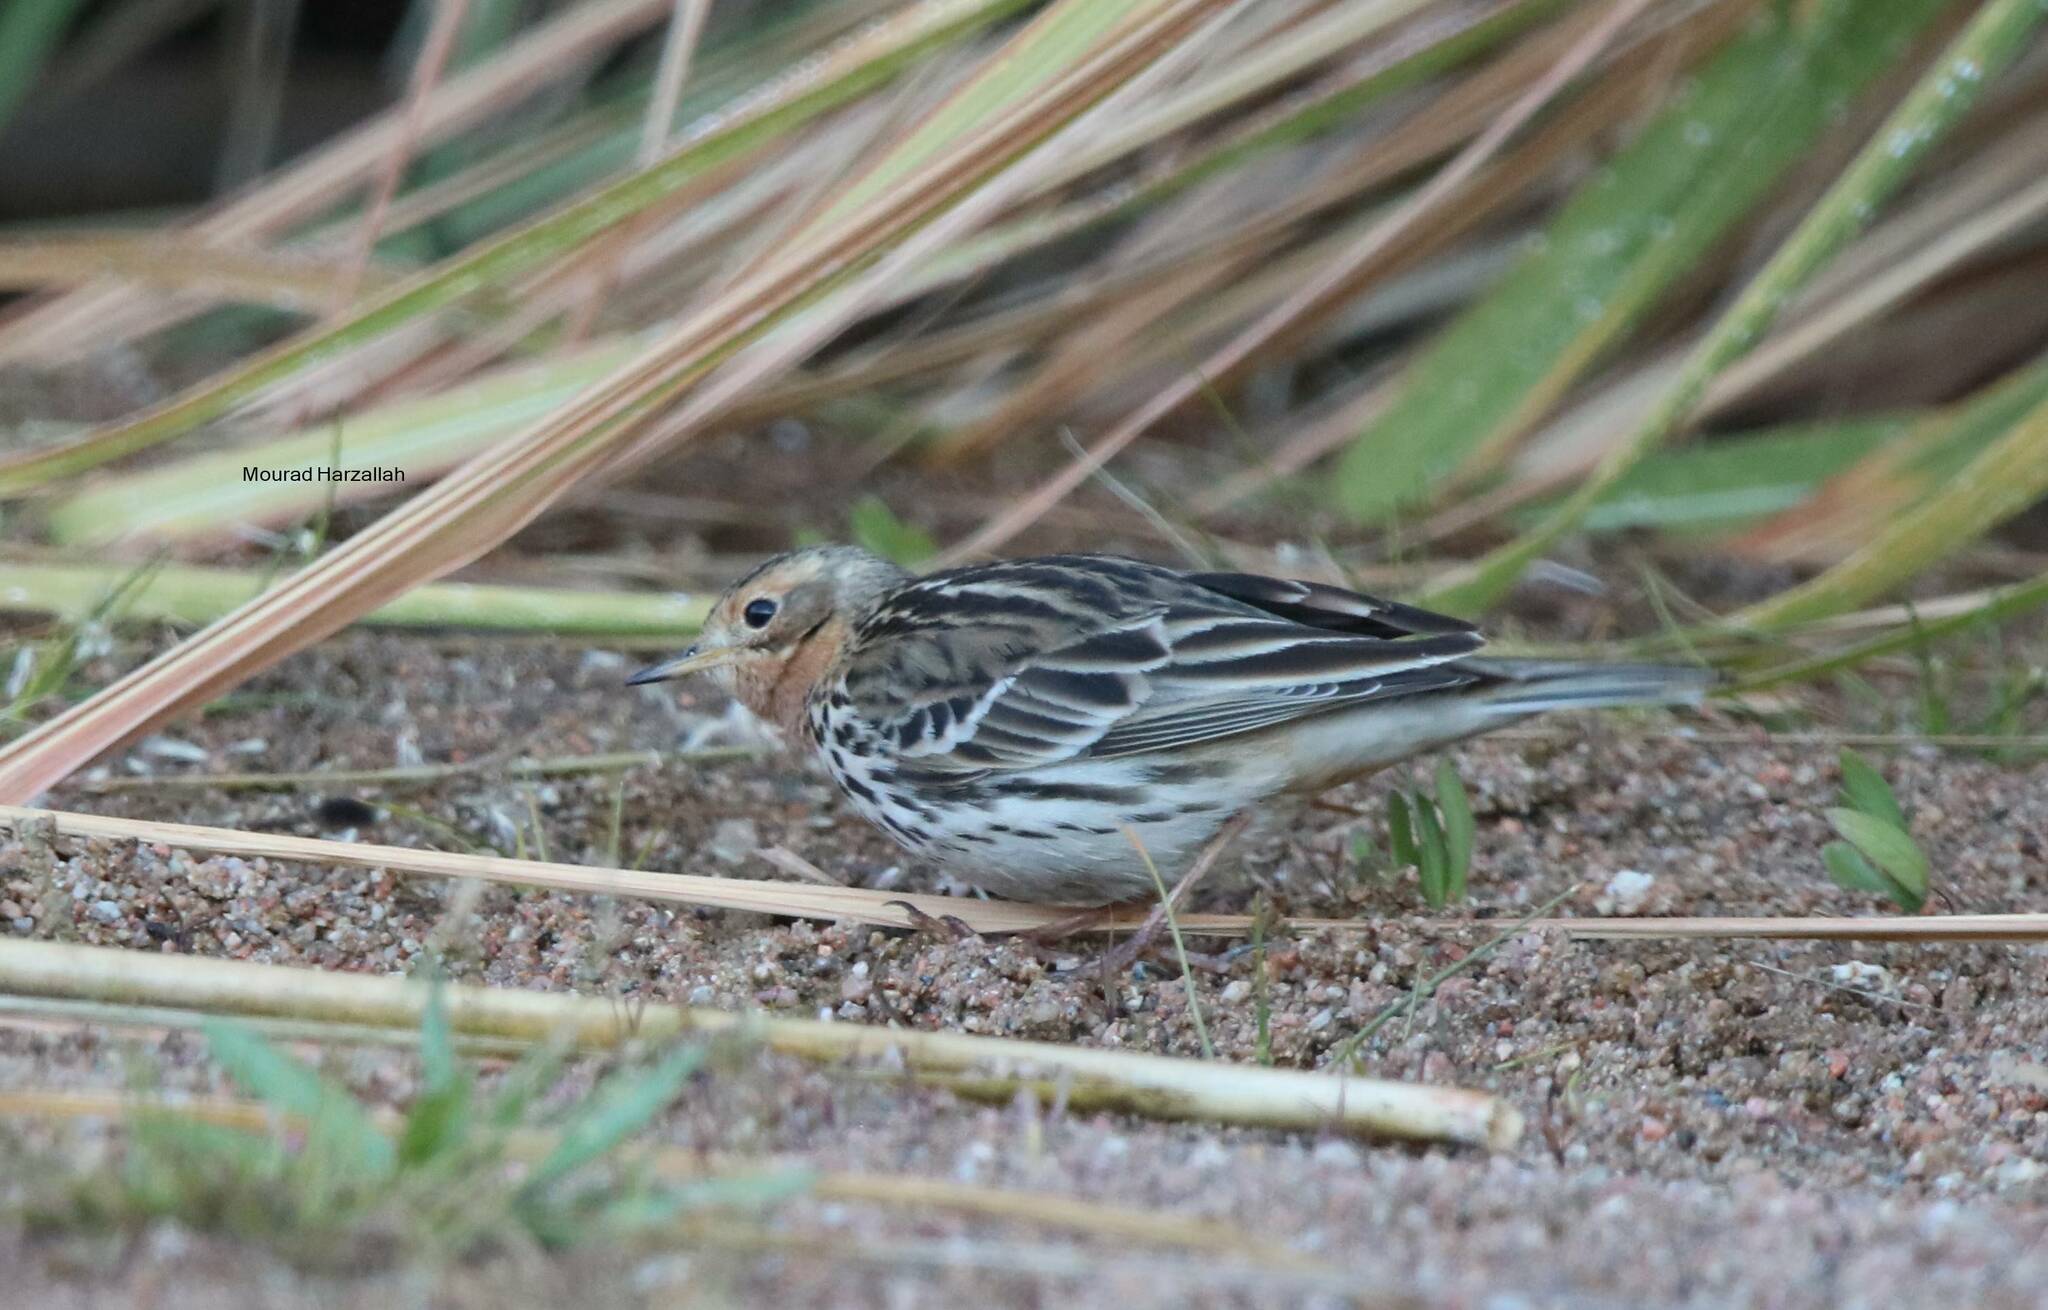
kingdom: Animalia
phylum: Chordata
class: Aves
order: Passeriformes
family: Motacillidae
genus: Anthus
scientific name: Anthus cervinus
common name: Red-throated pipit
